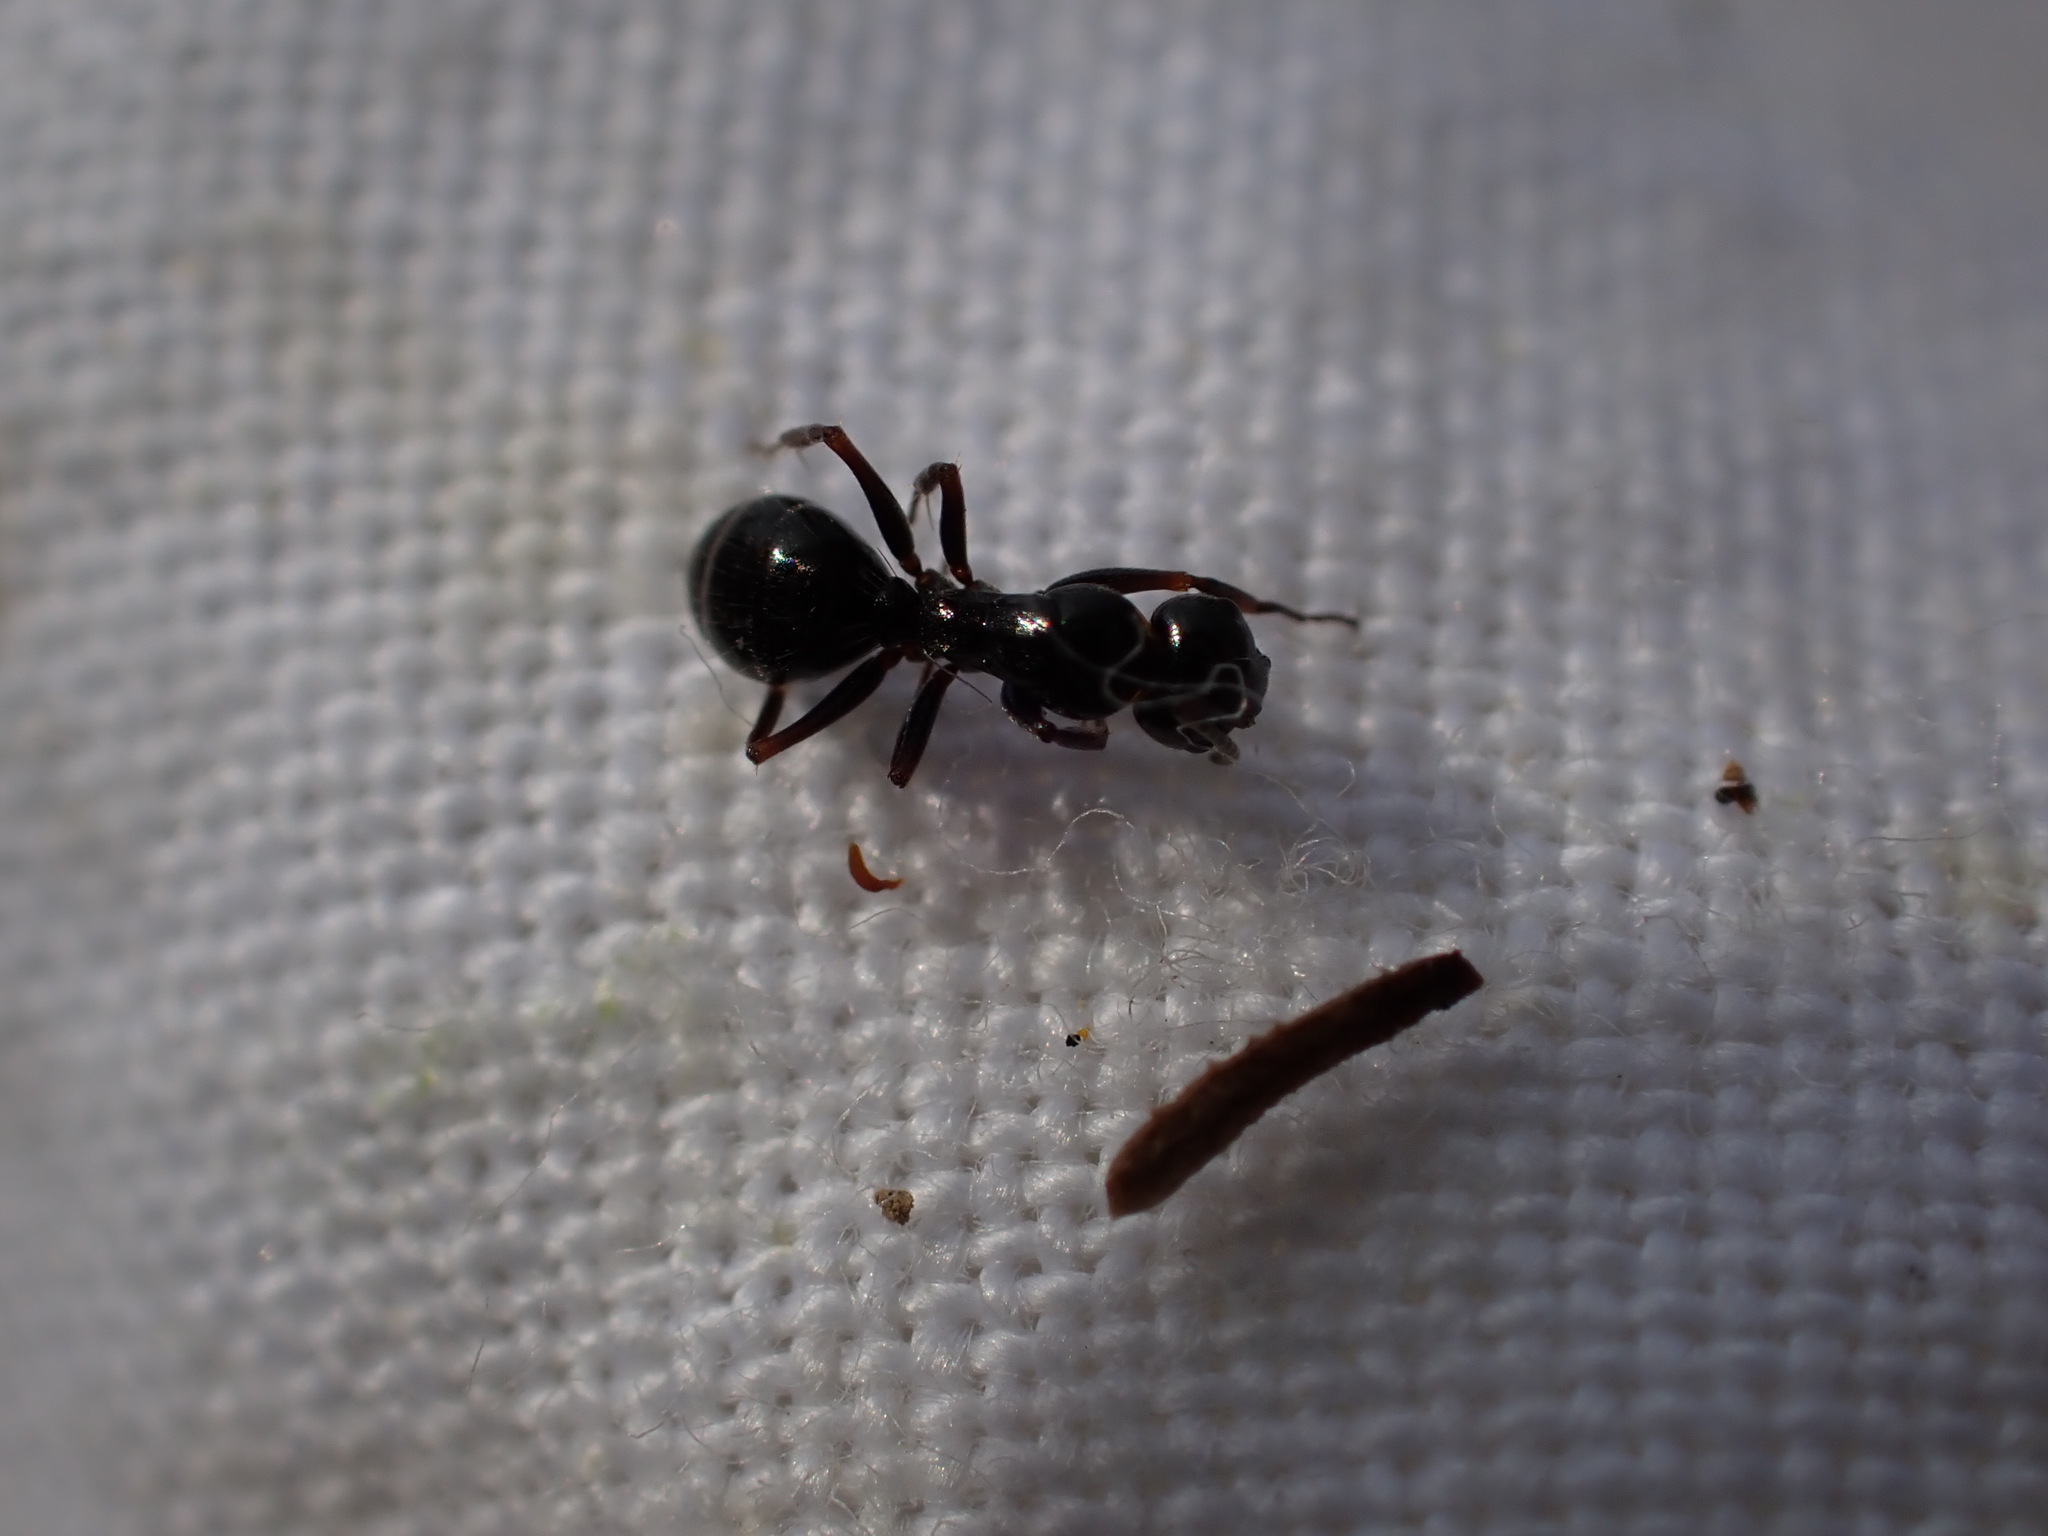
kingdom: Animalia
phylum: Arthropoda
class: Insecta
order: Hymenoptera
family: Formicidae
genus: Camponotus
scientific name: Camponotus piceus
